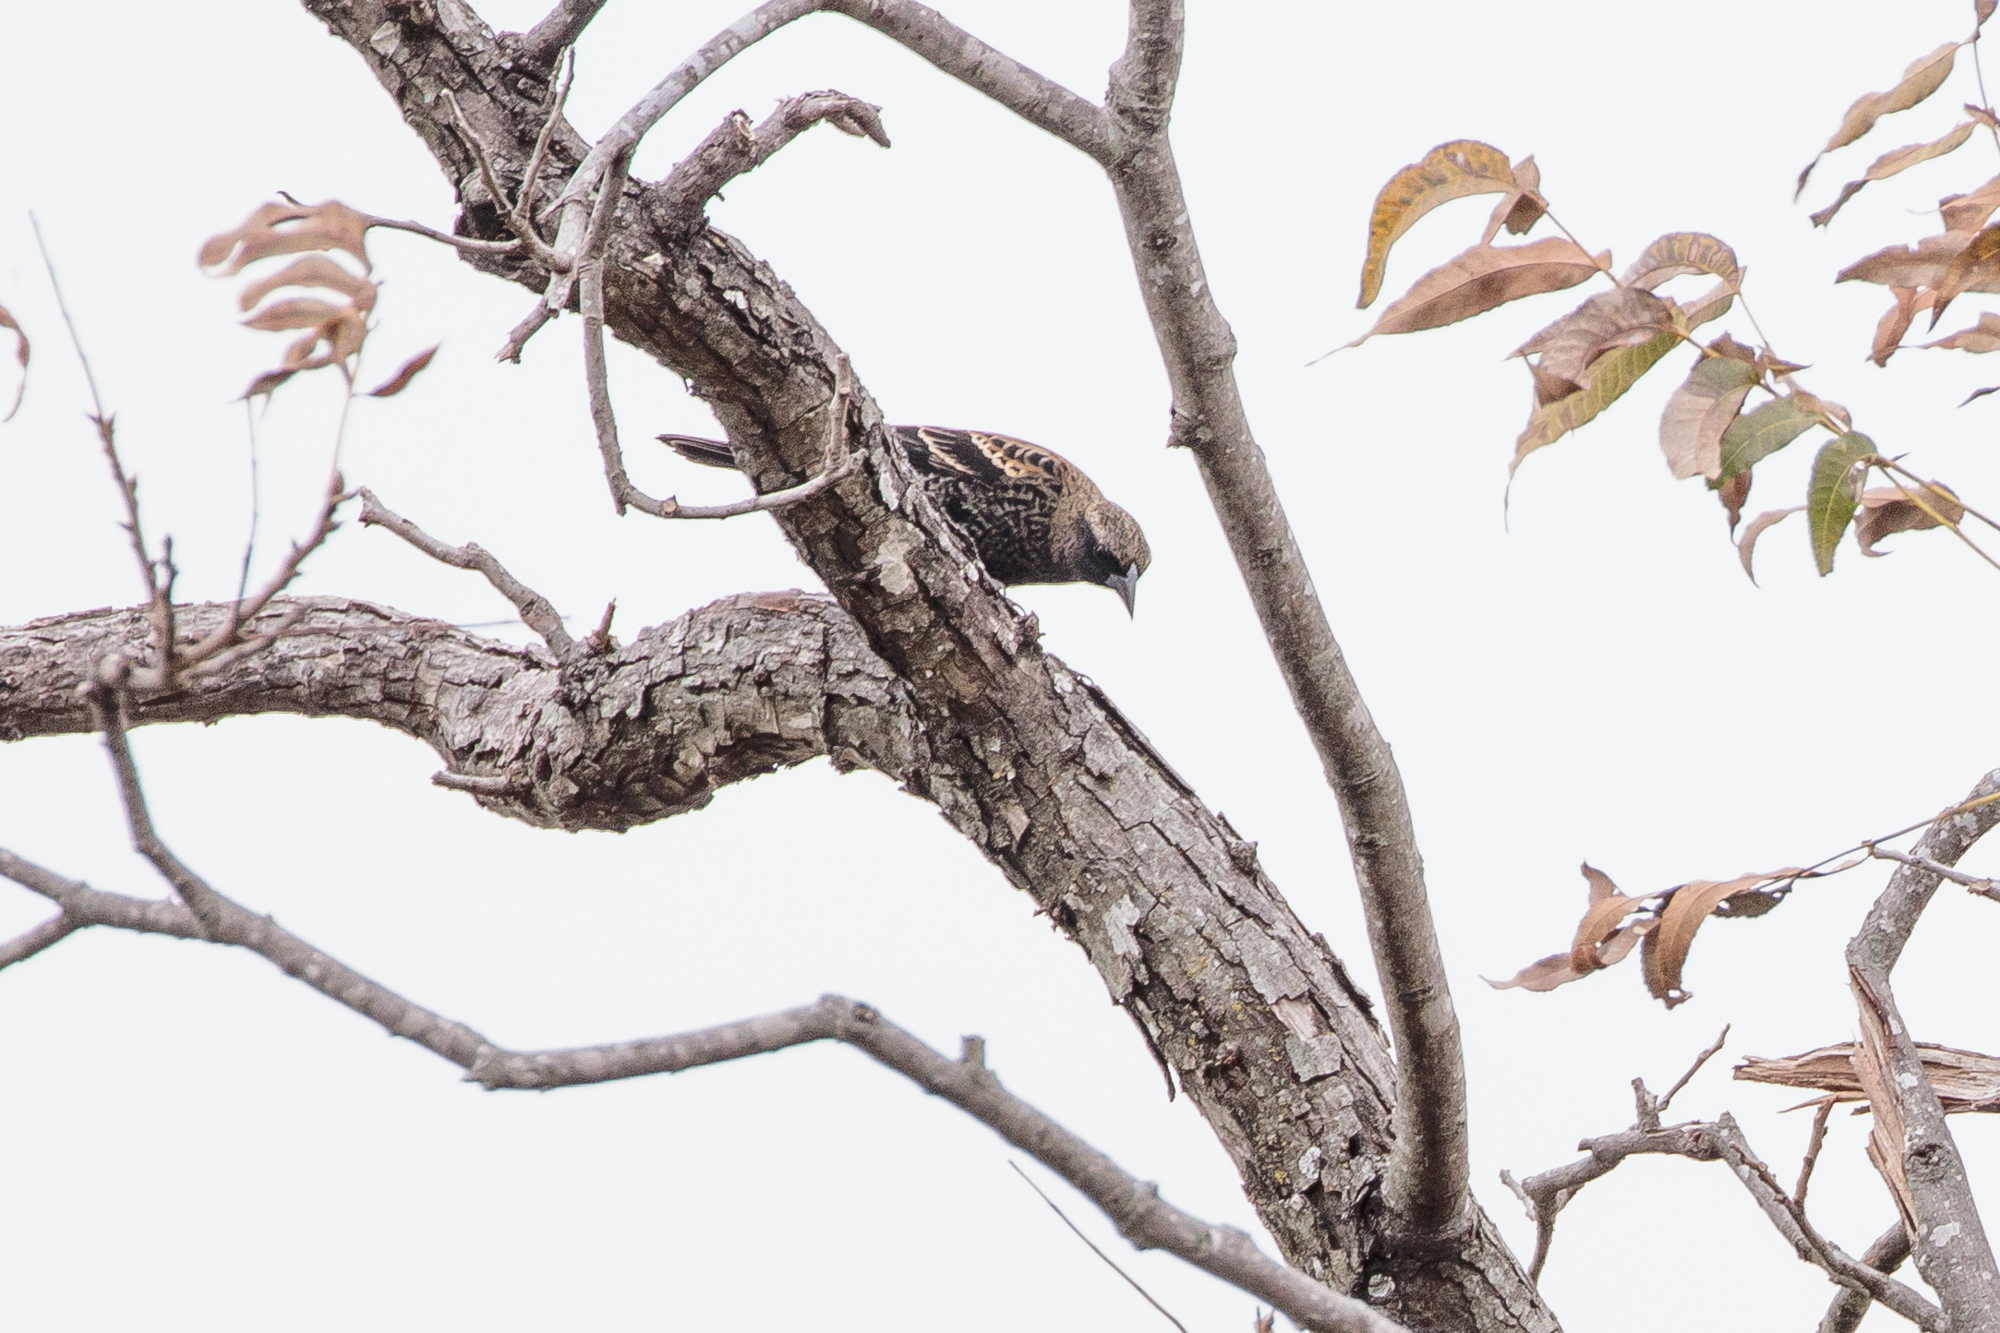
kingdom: Animalia
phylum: Chordata
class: Aves
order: Passeriformes
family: Icteridae
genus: Agelaius
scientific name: Agelaius phoeniceus
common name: Red-winged blackbird
